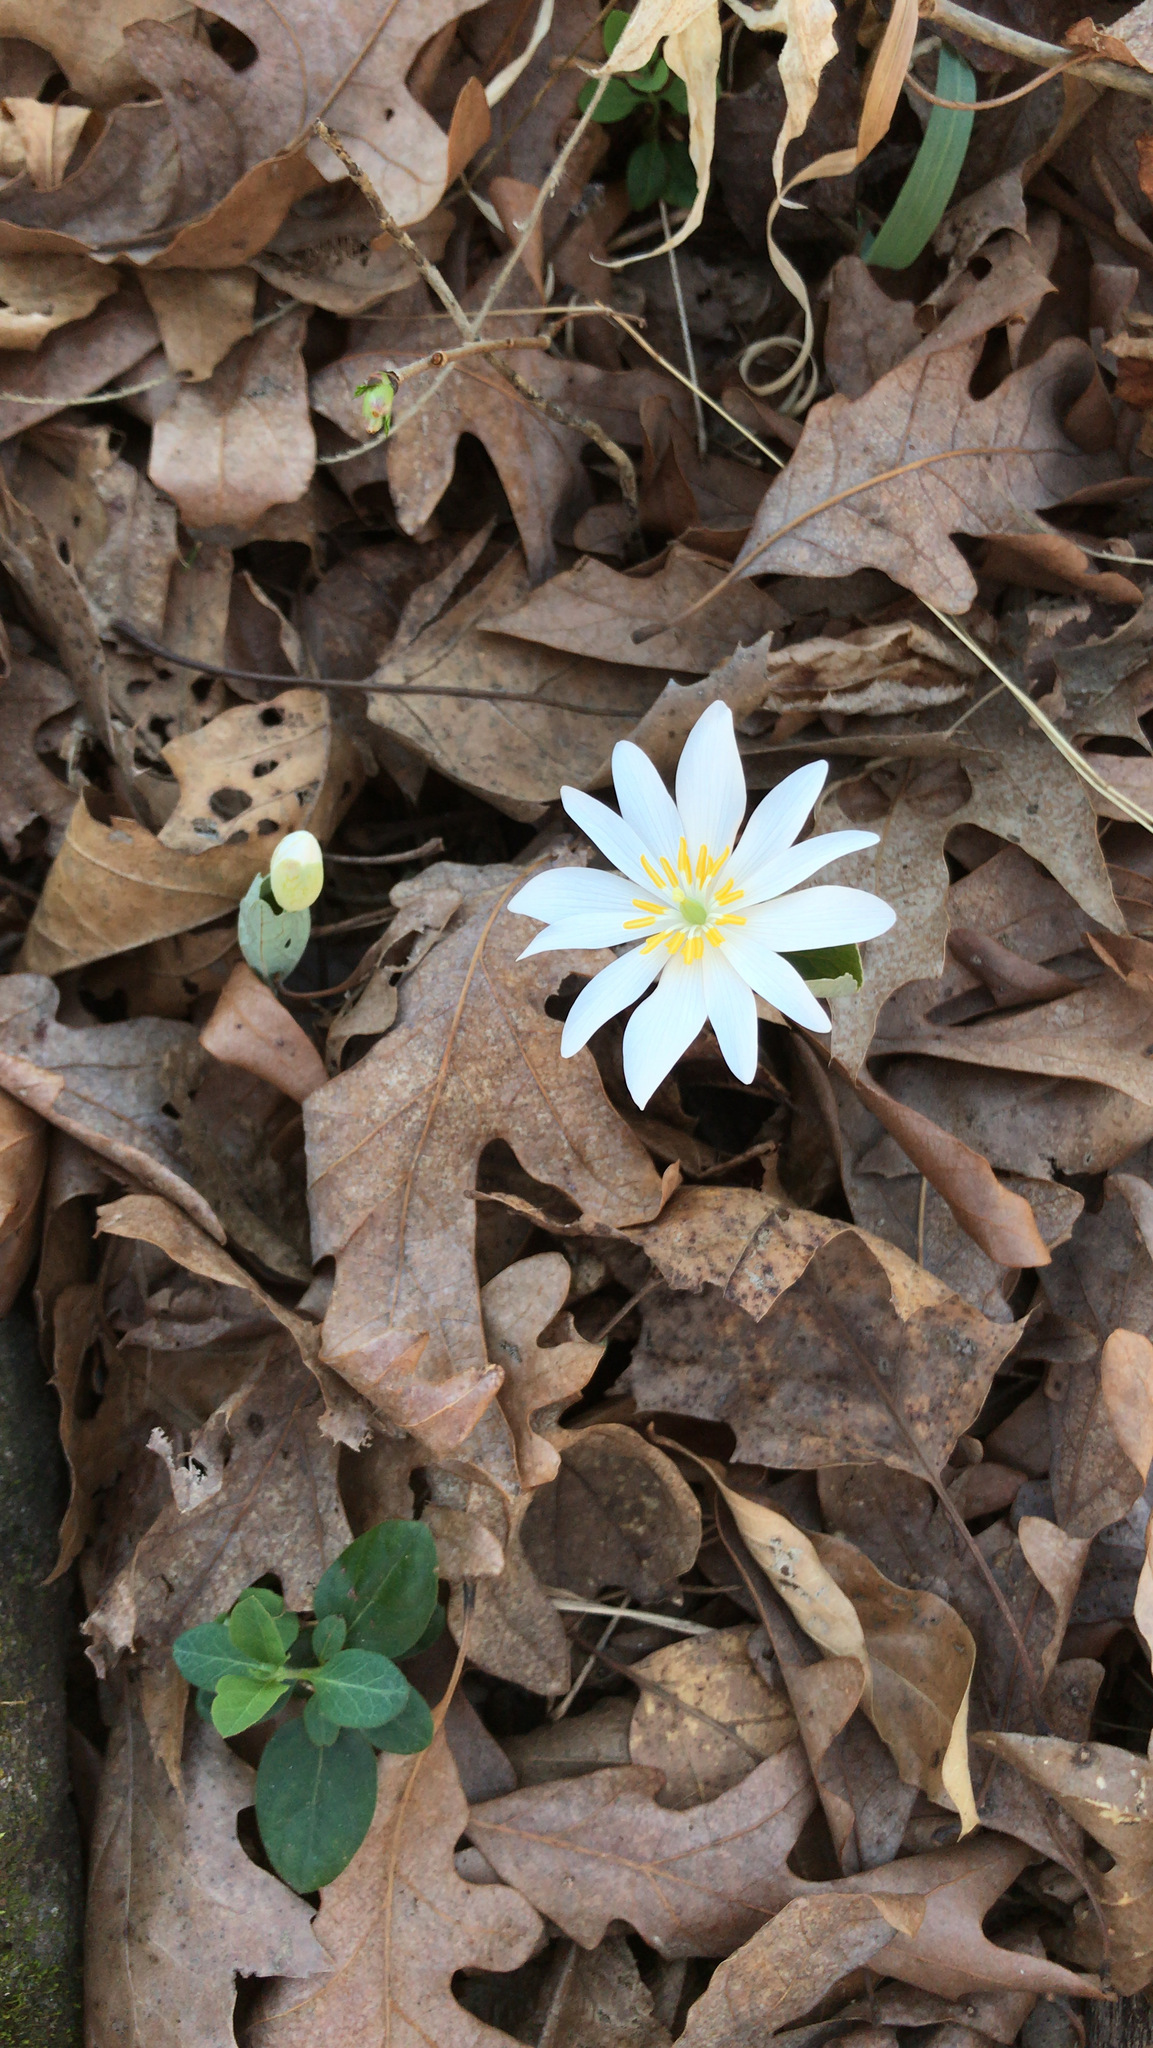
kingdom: Plantae
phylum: Tracheophyta
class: Magnoliopsida
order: Ranunculales
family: Papaveraceae
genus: Sanguinaria
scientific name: Sanguinaria canadensis
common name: Bloodroot
